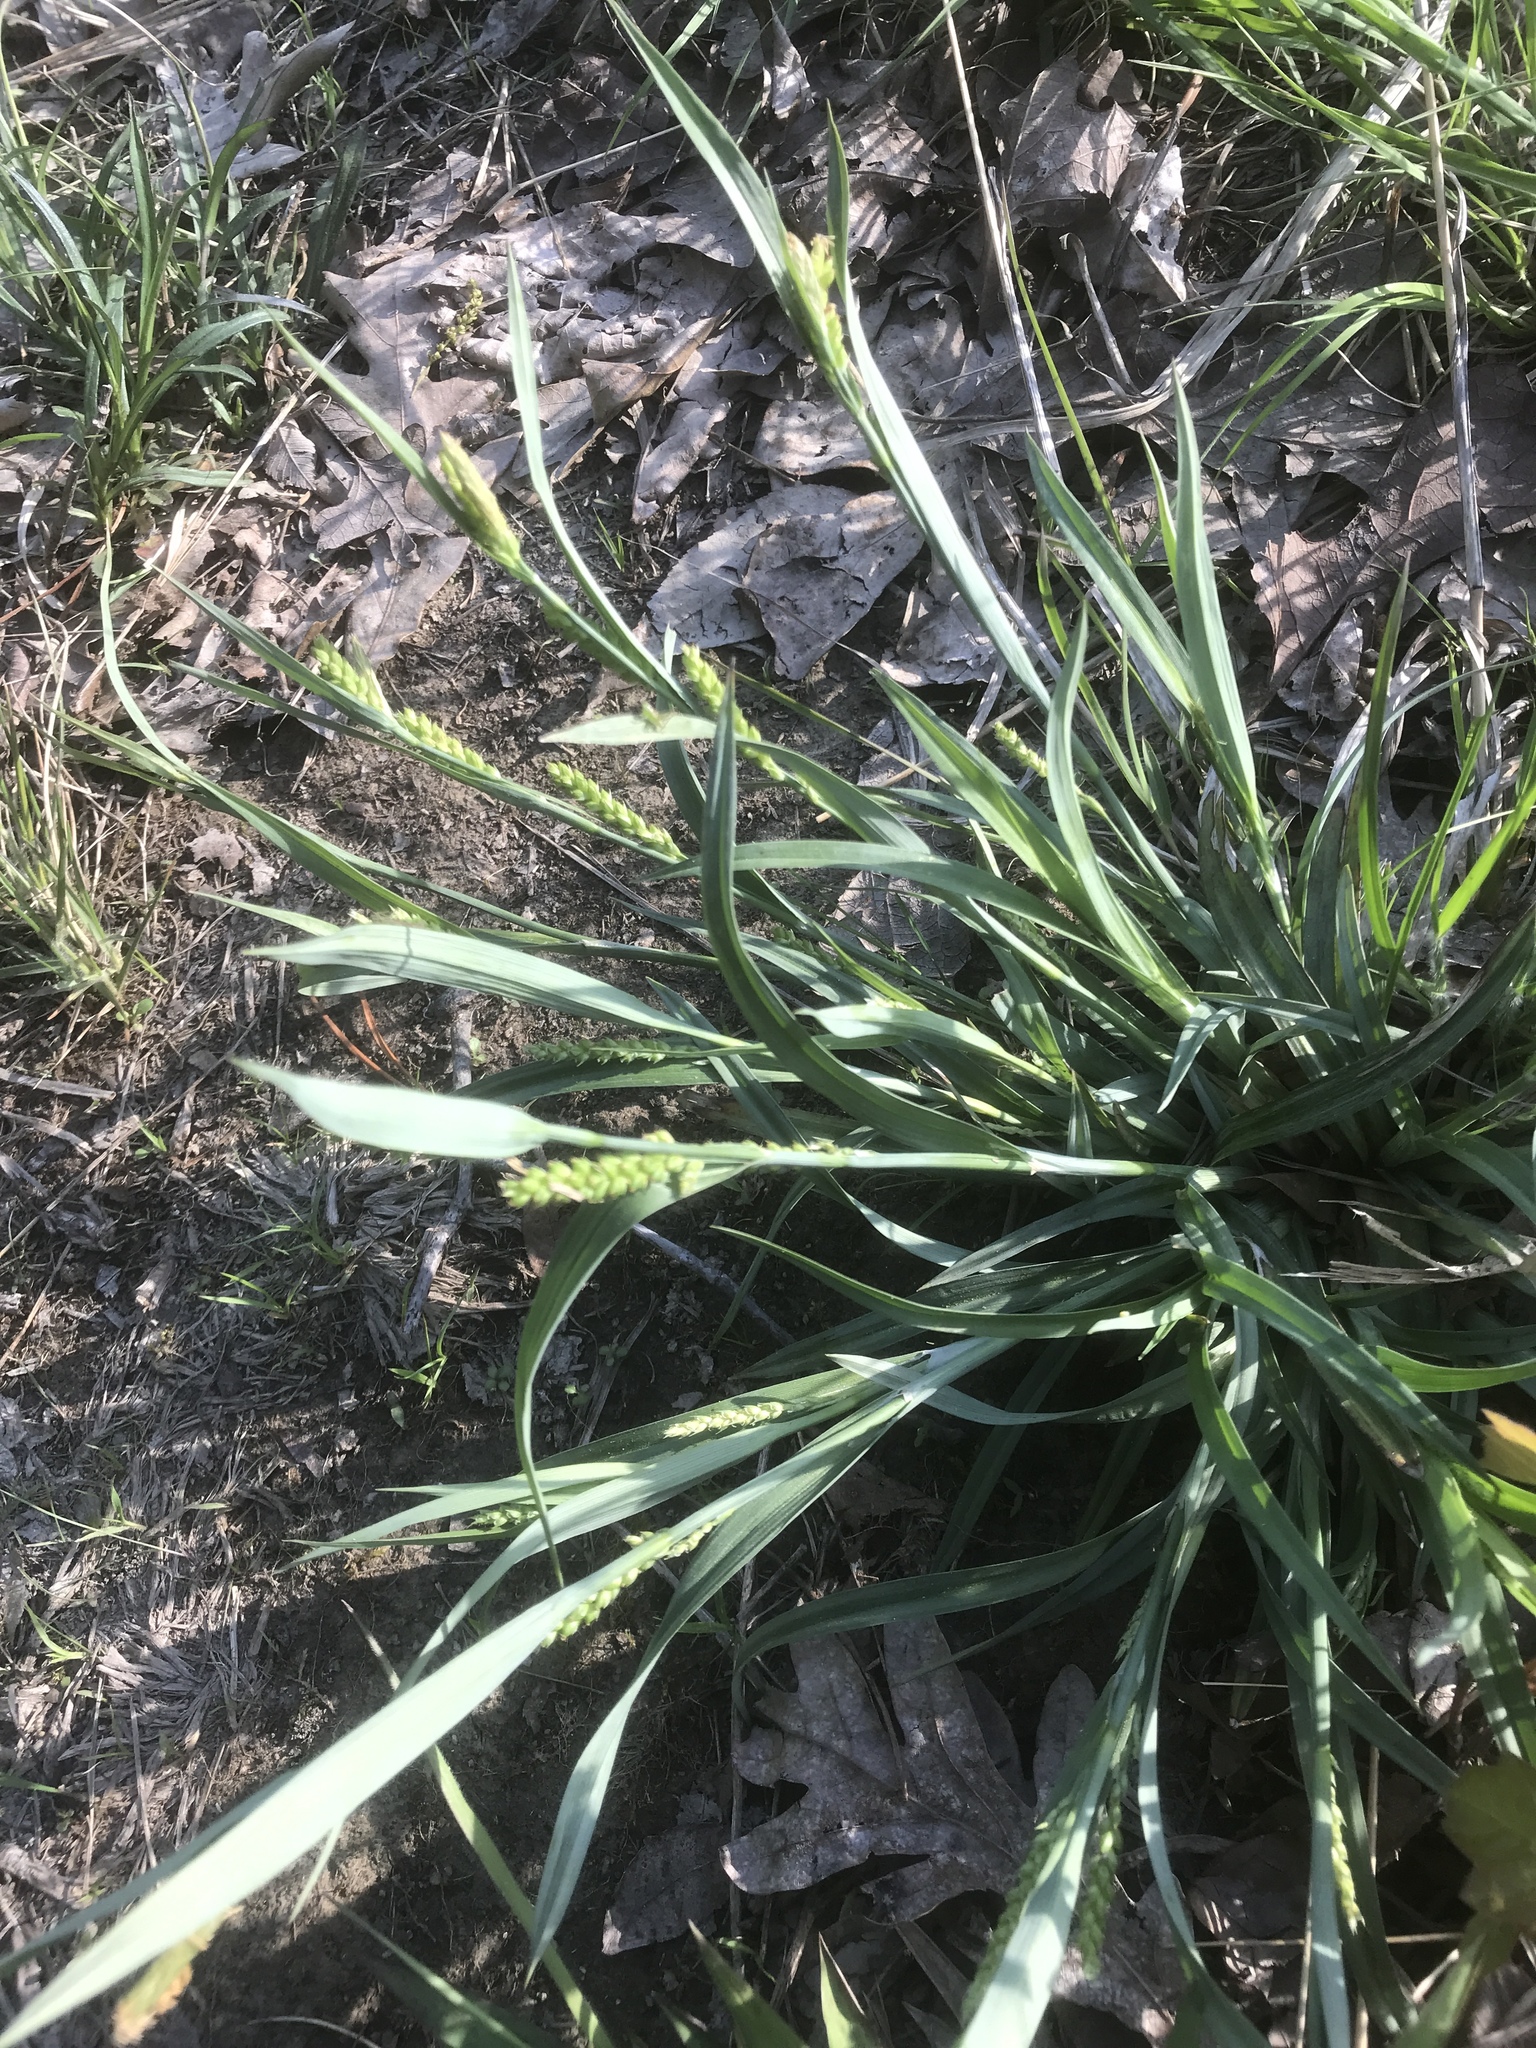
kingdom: Plantae
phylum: Tracheophyta
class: Liliopsida
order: Poales
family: Cyperaceae
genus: Carex
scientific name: Carex flaccosperma
